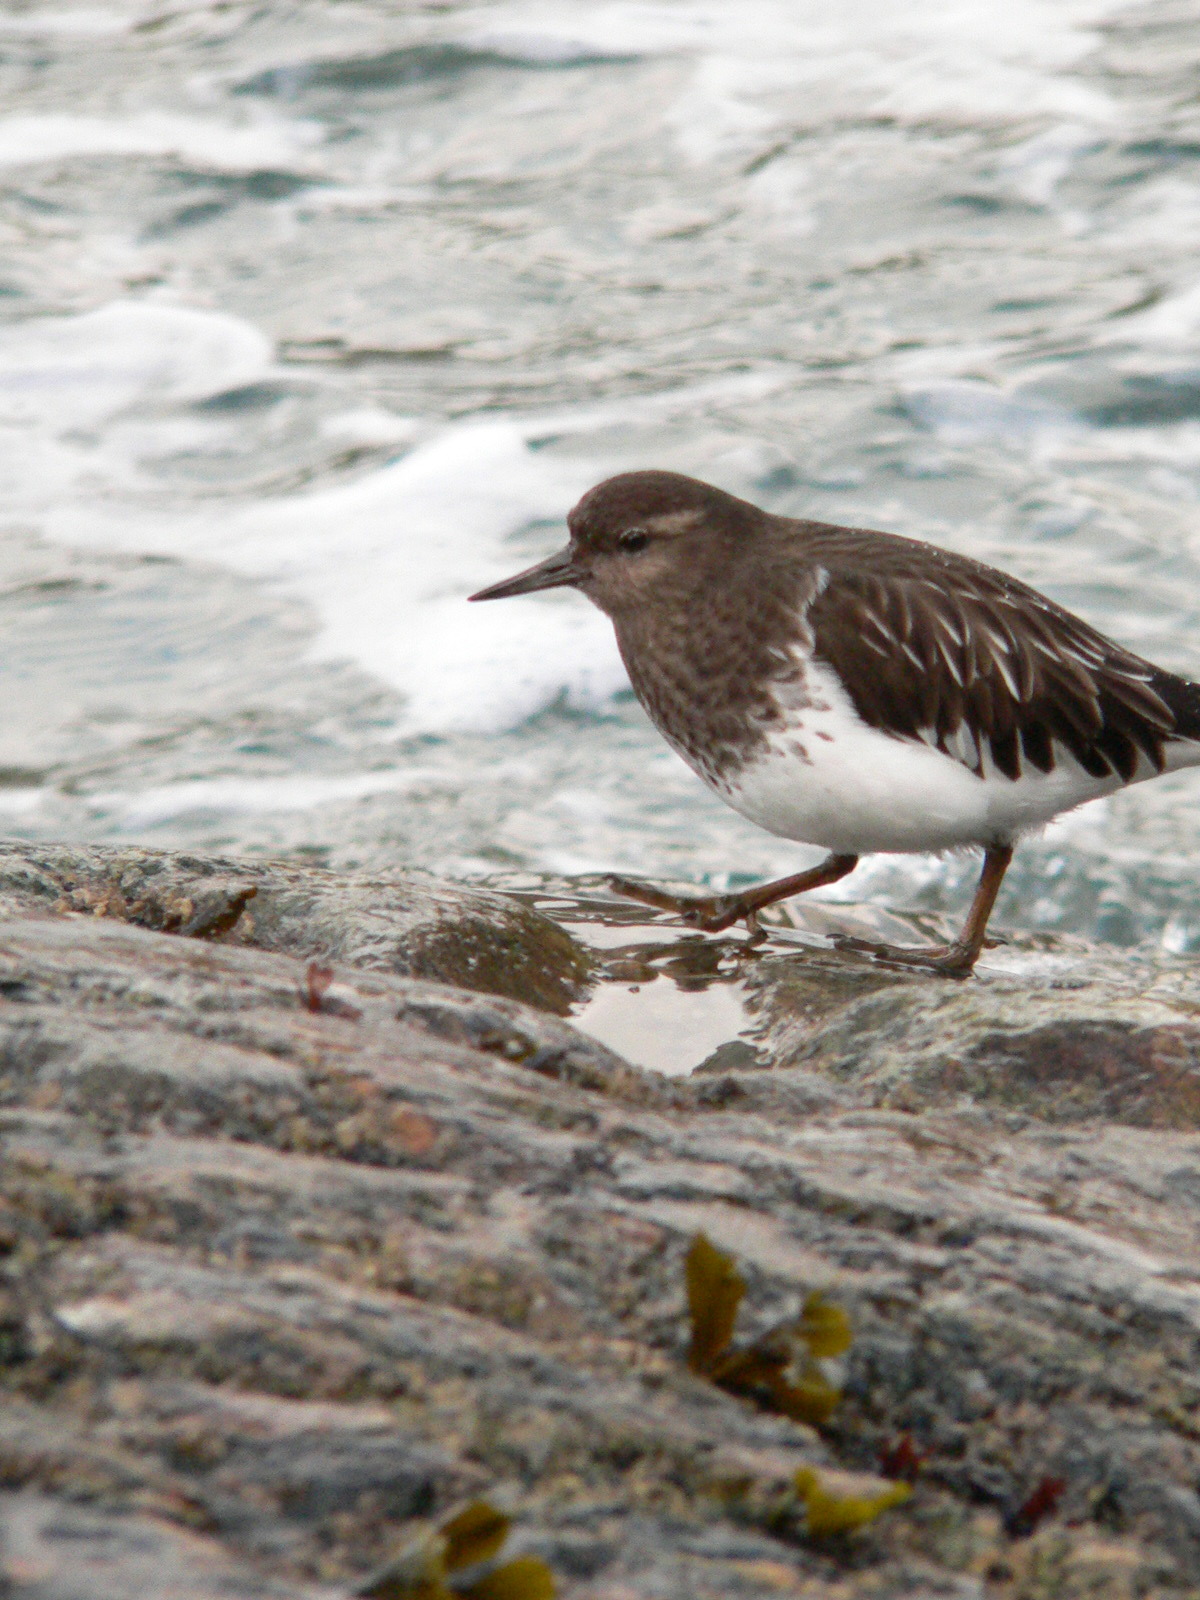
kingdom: Animalia
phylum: Chordata
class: Aves
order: Charadriiformes
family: Scolopacidae
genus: Arenaria
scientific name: Arenaria melanocephala
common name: Black turnstone
